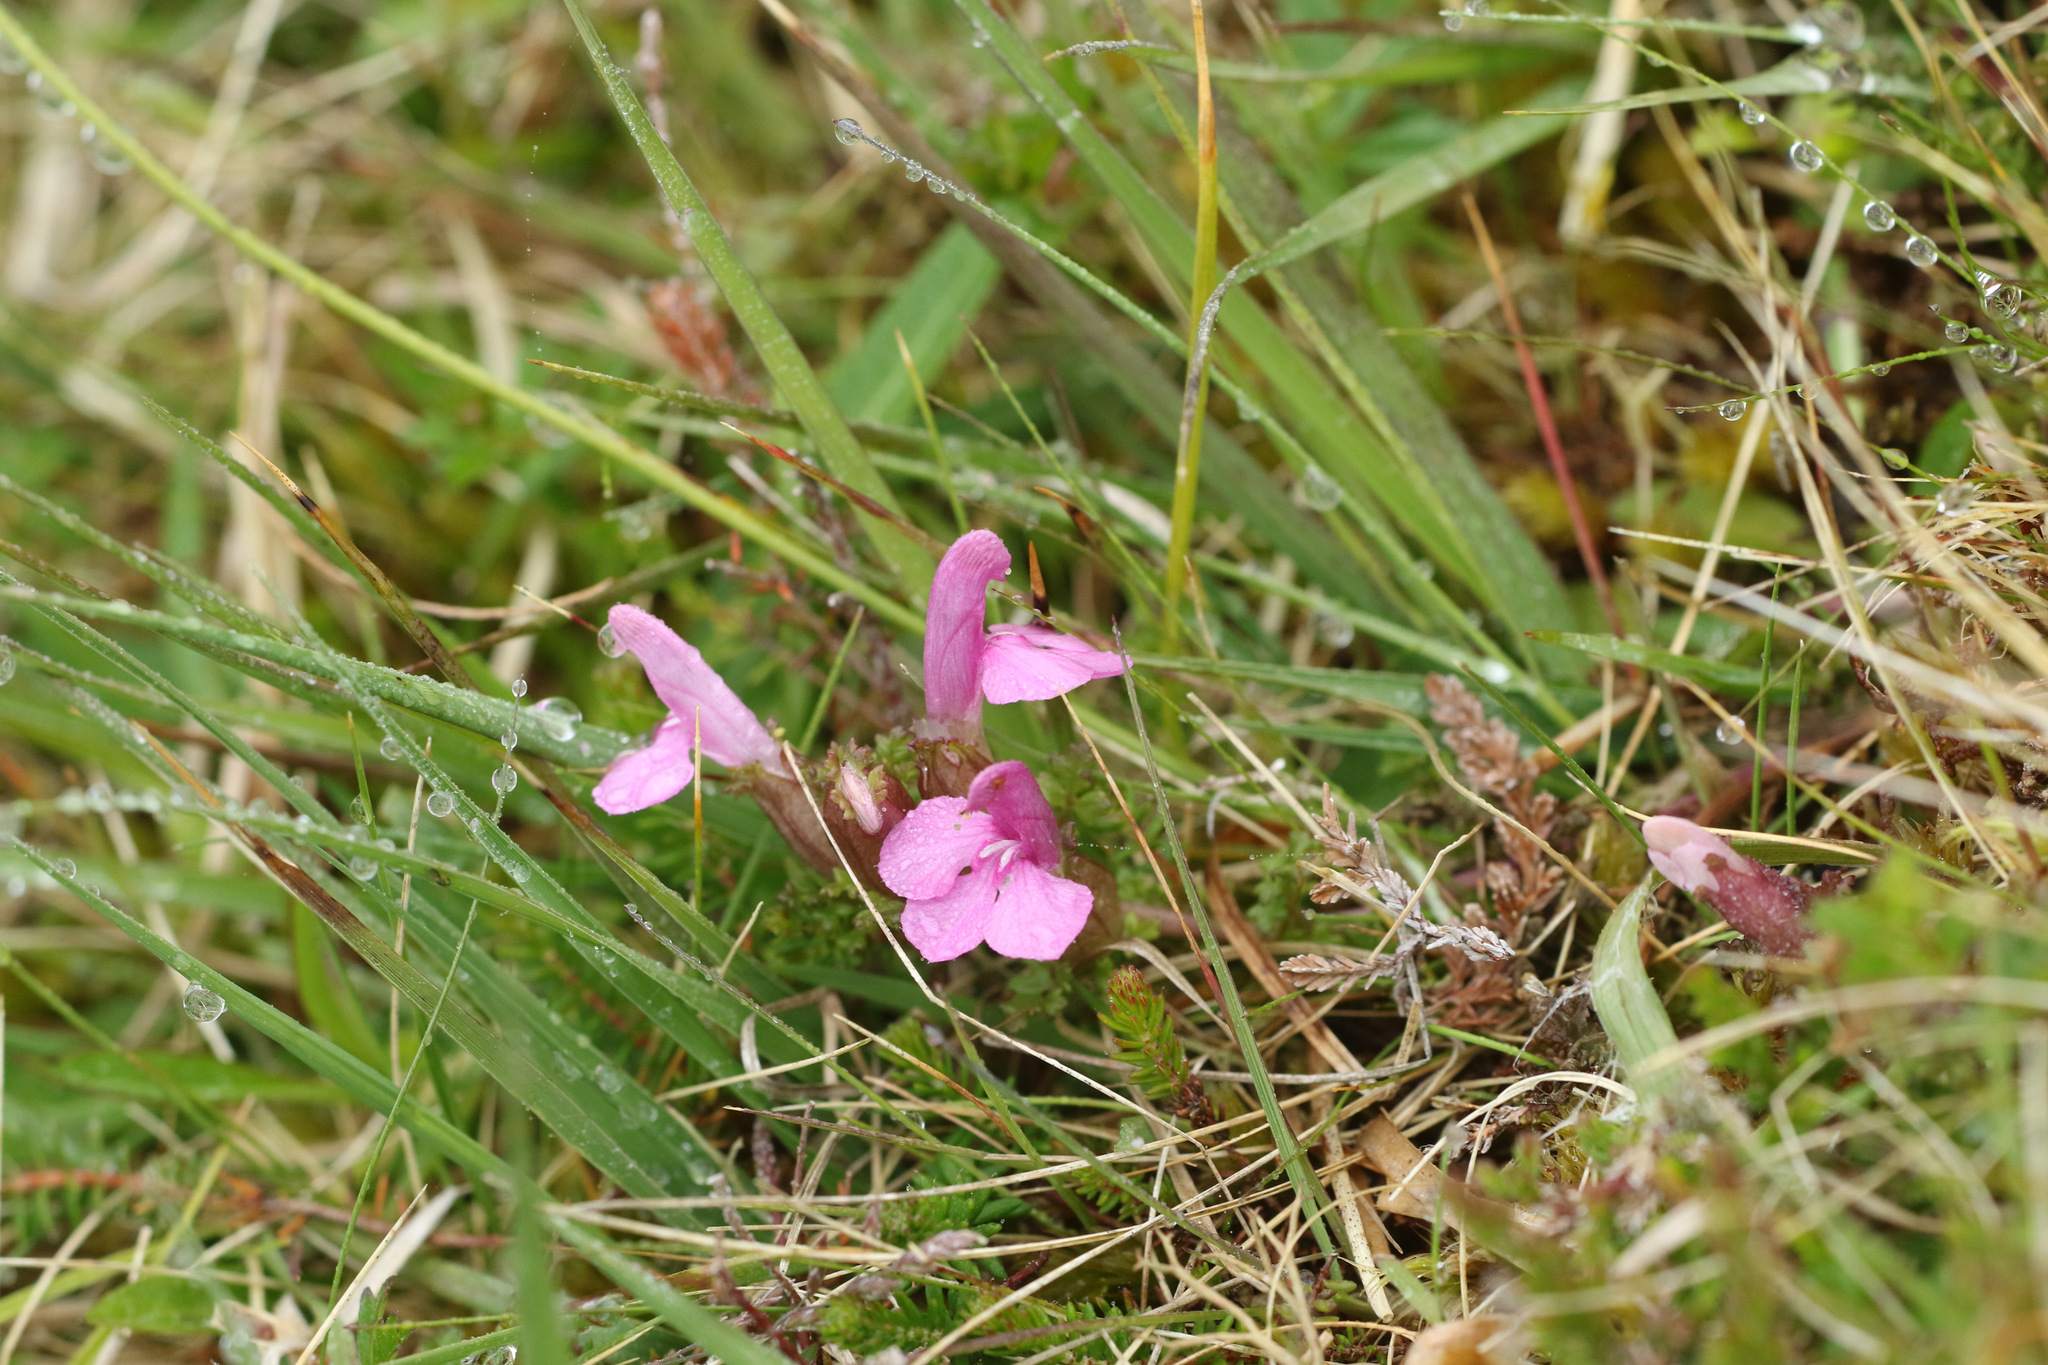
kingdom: Plantae
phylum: Tracheophyta
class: Magnoliopsida
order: Lamiales
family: Orobanchaceae
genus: Pedicularis
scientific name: Pedicularis sylvatica
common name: Lousewort
